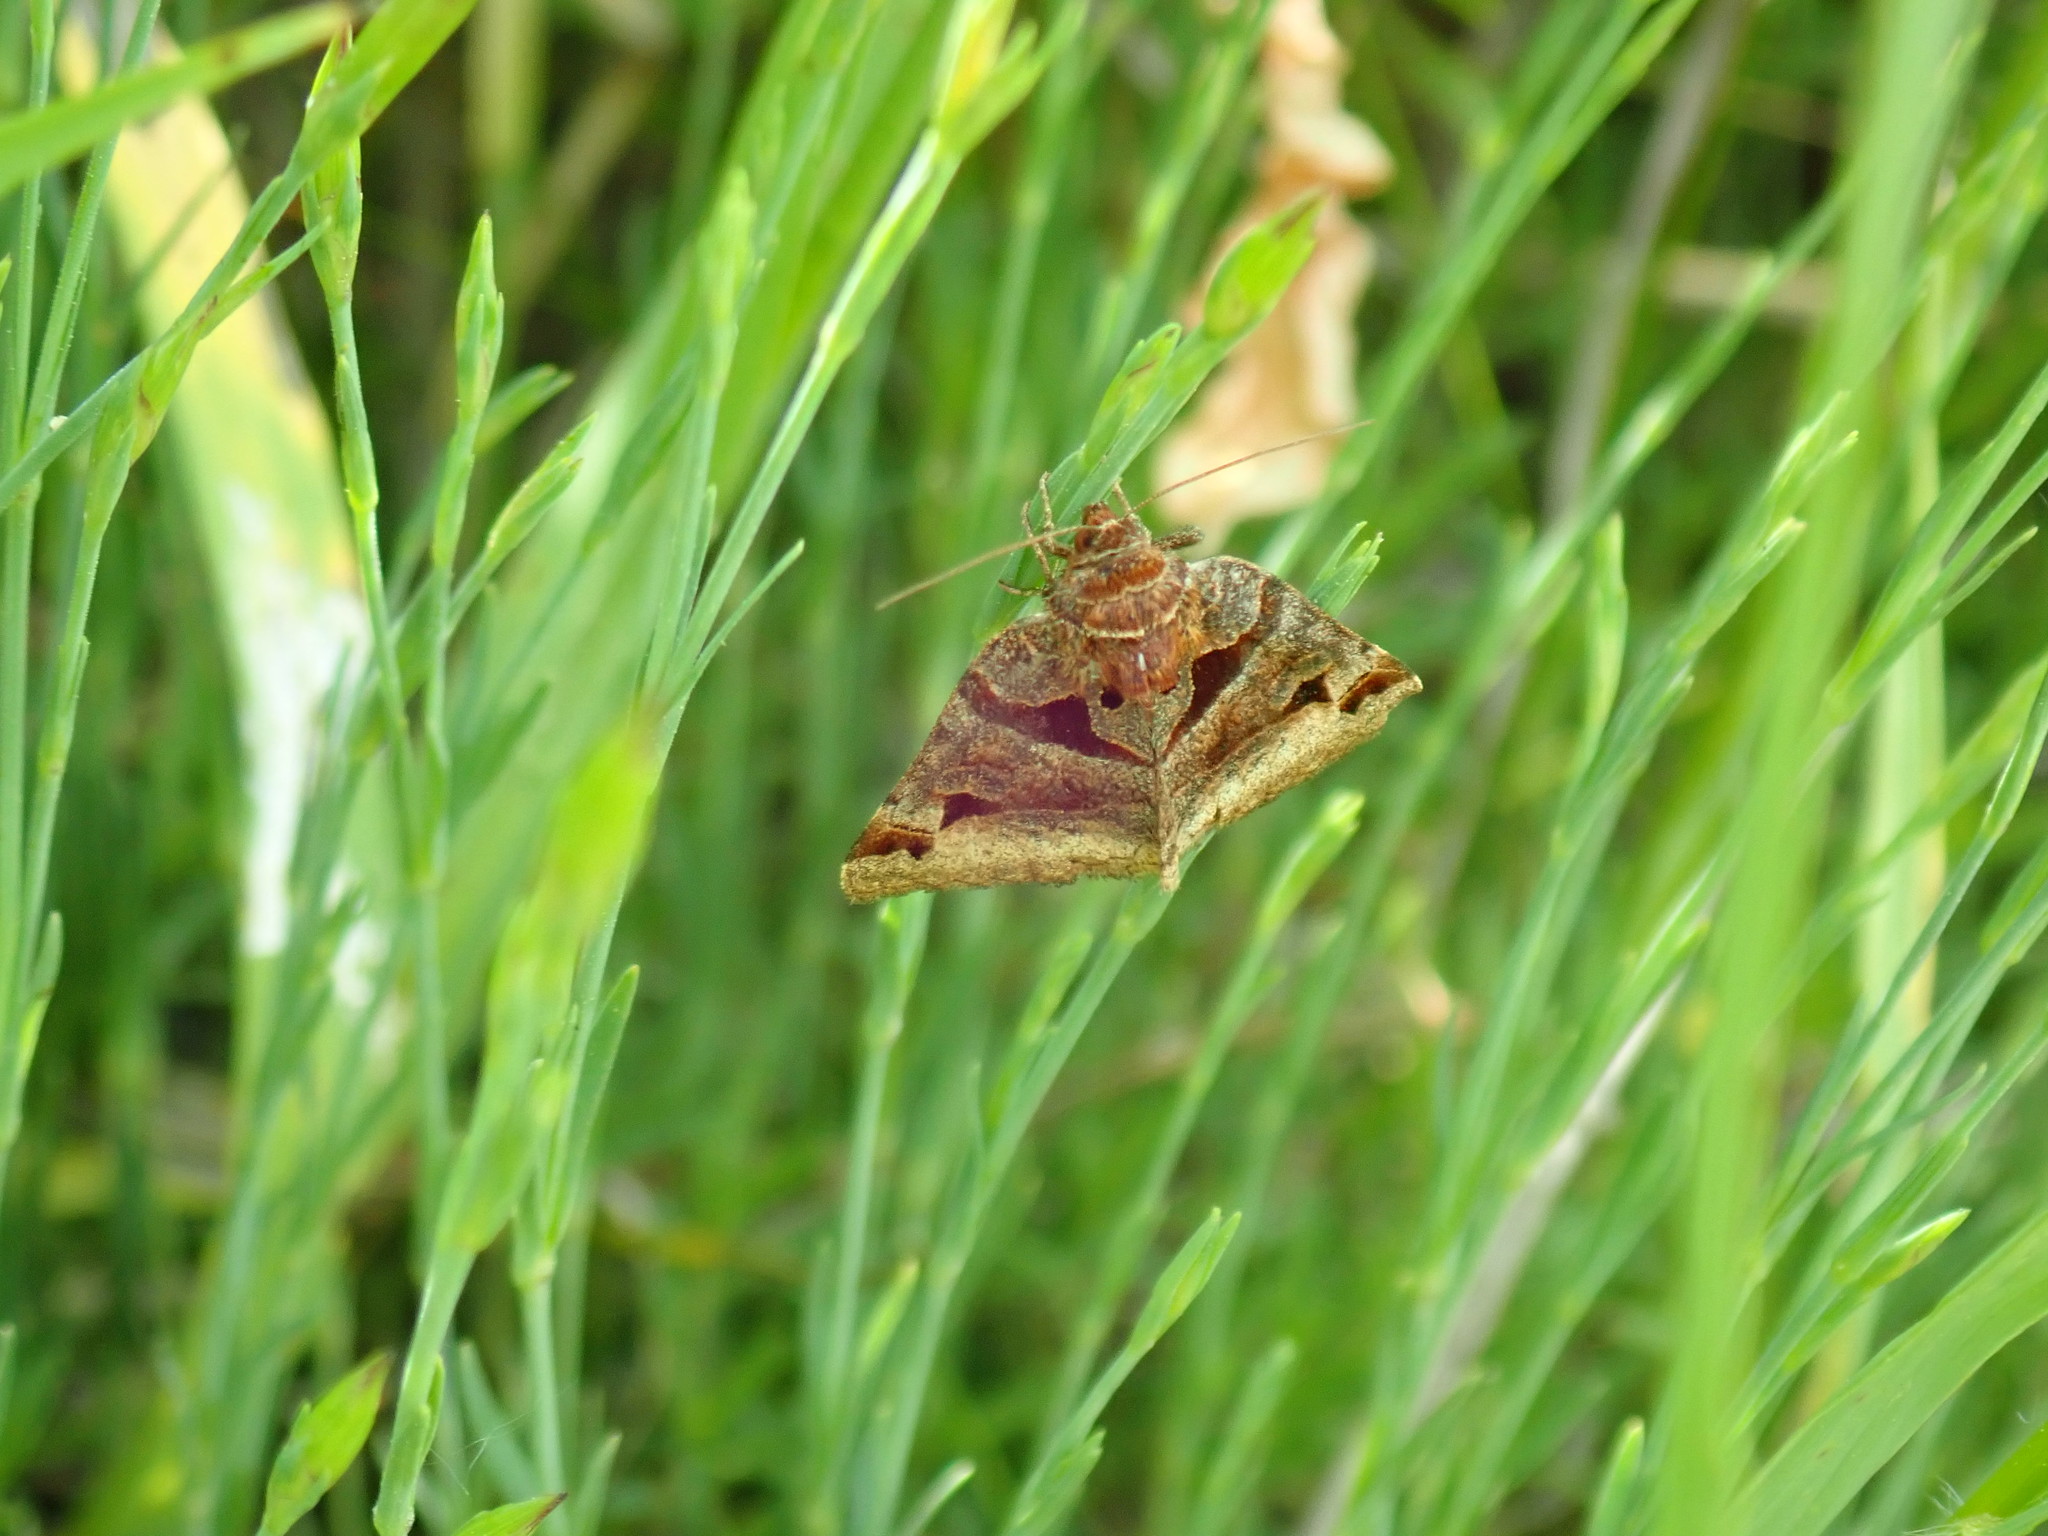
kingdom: Animalia
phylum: Arthropoda
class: Insecta
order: Lepidoptera
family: Erebidae
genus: Euclidia
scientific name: Euclidia cuspidea
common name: Toothed somberwing
